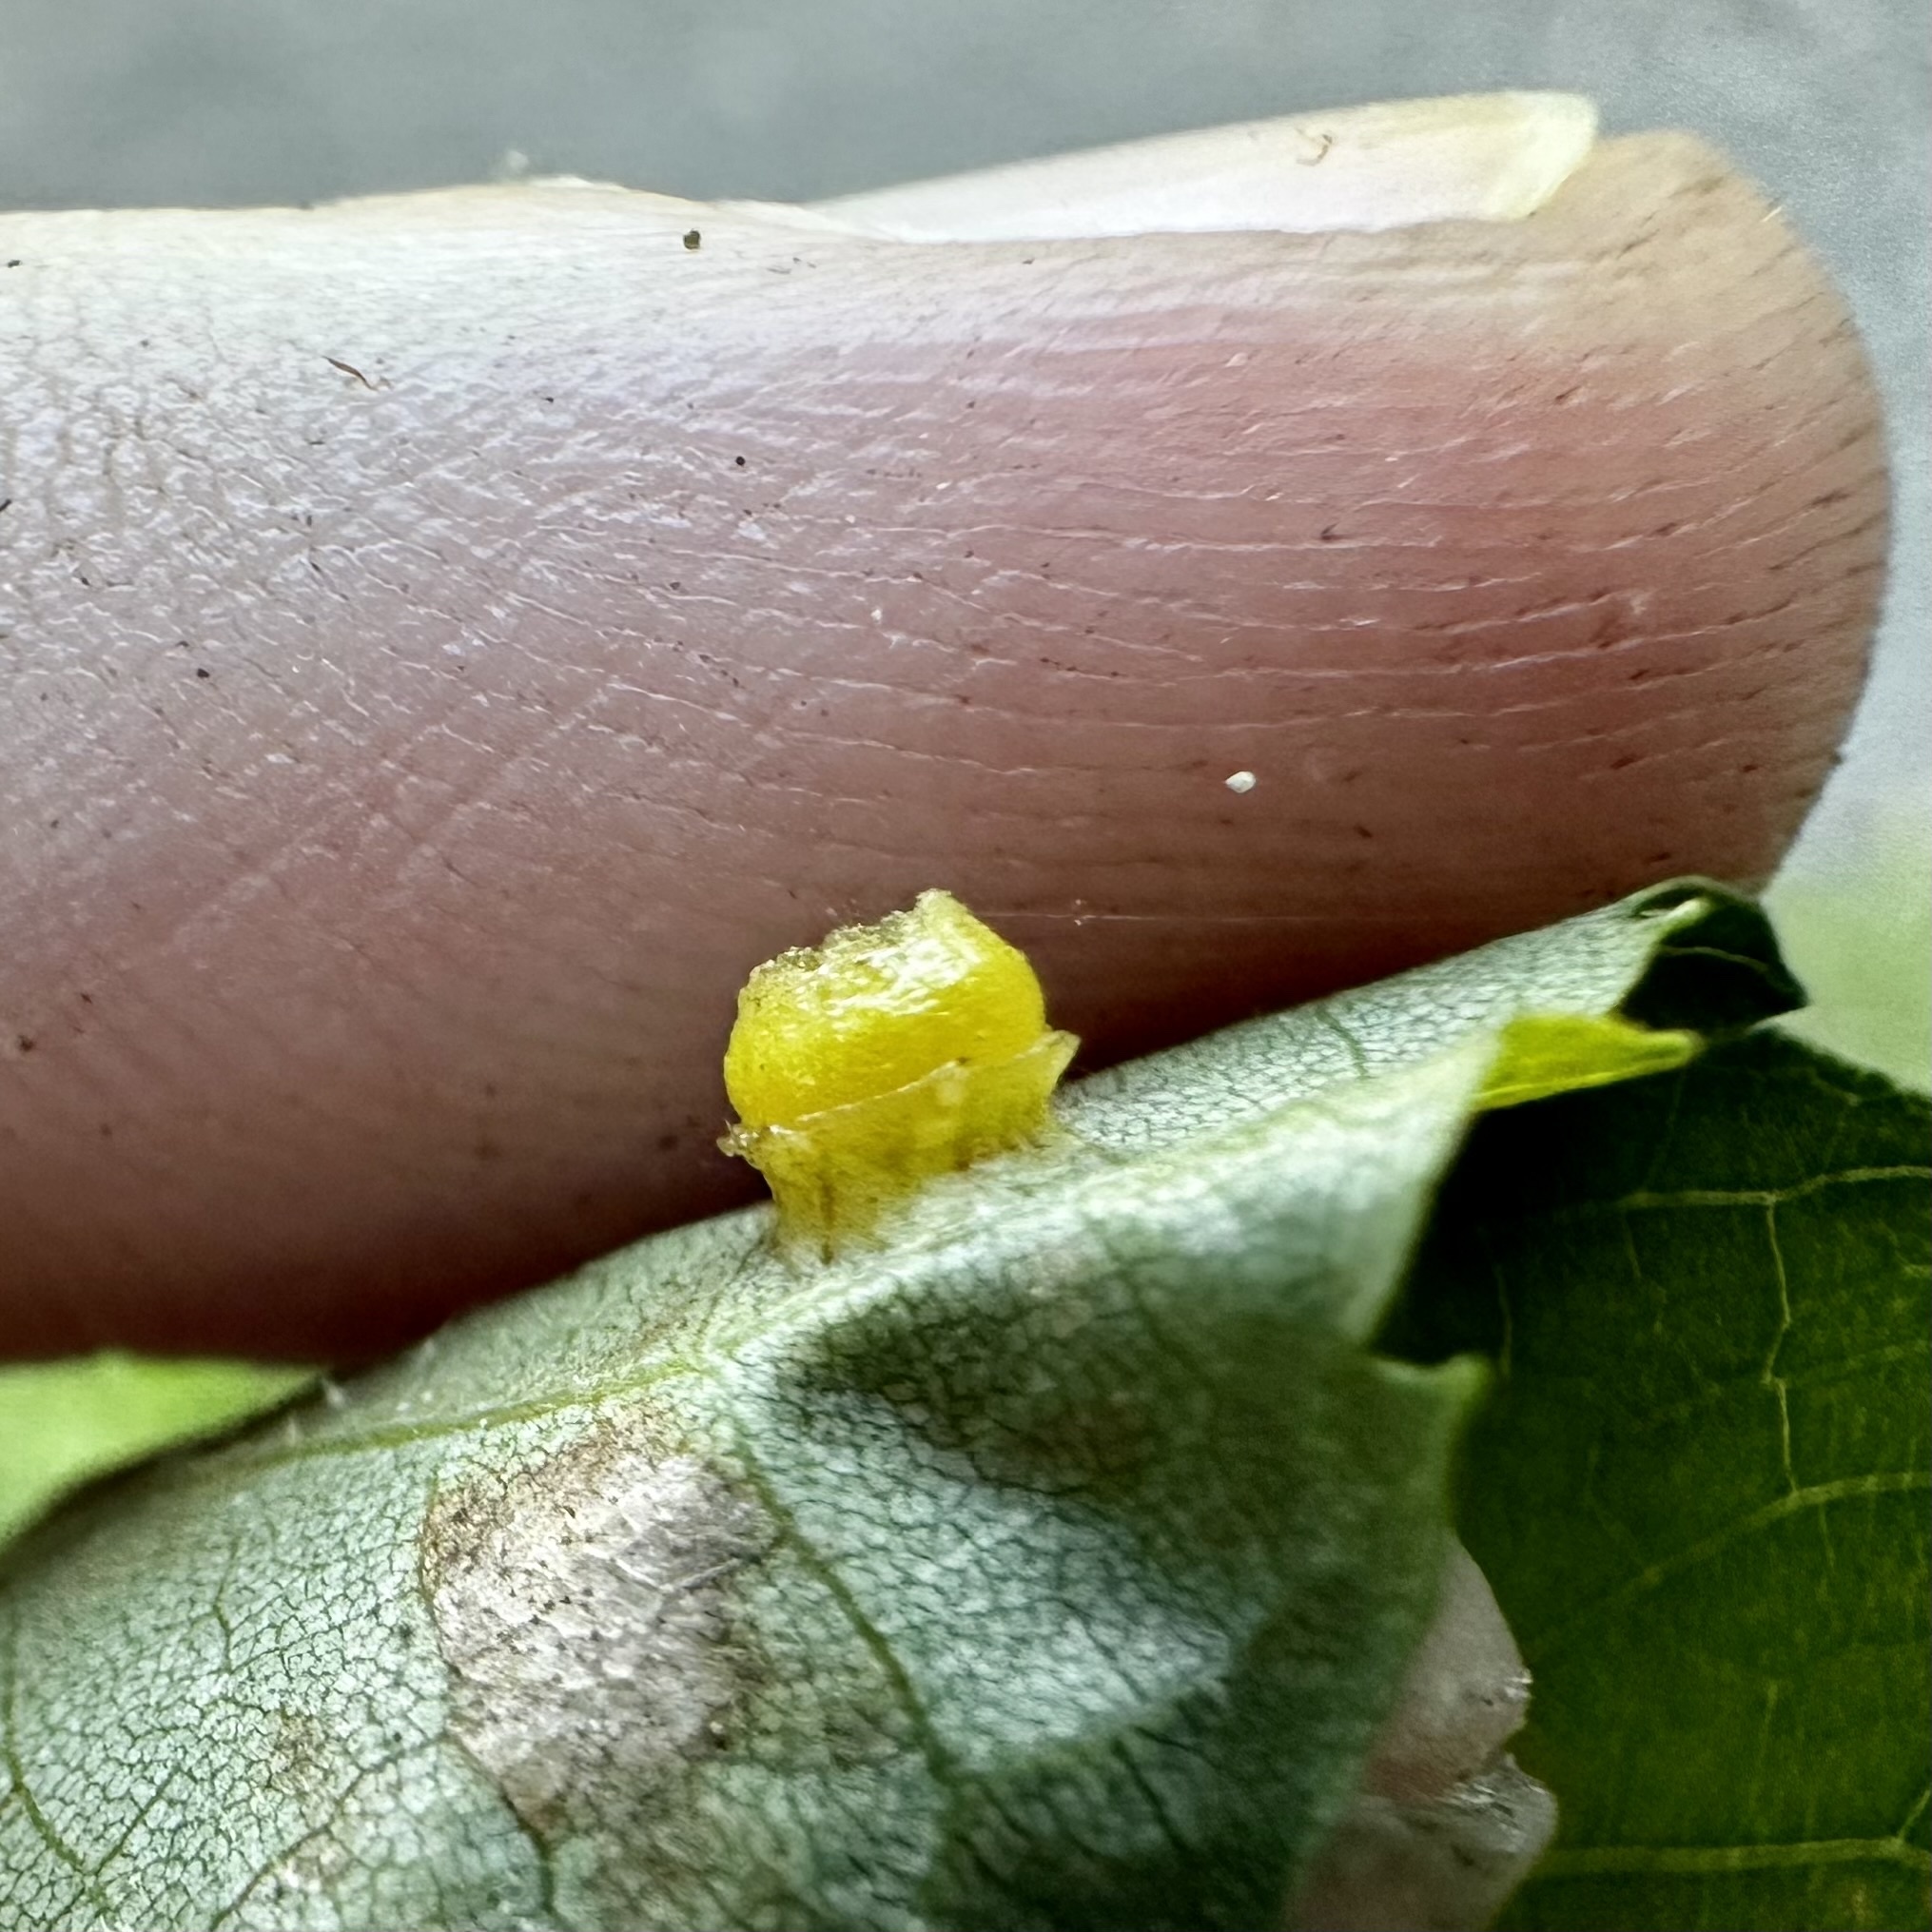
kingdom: Animalia
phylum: Arthropoda
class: Insecta
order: Diptera
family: Cecidomyiidae
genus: Caryomyia
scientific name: Caryomyia melicrustum
